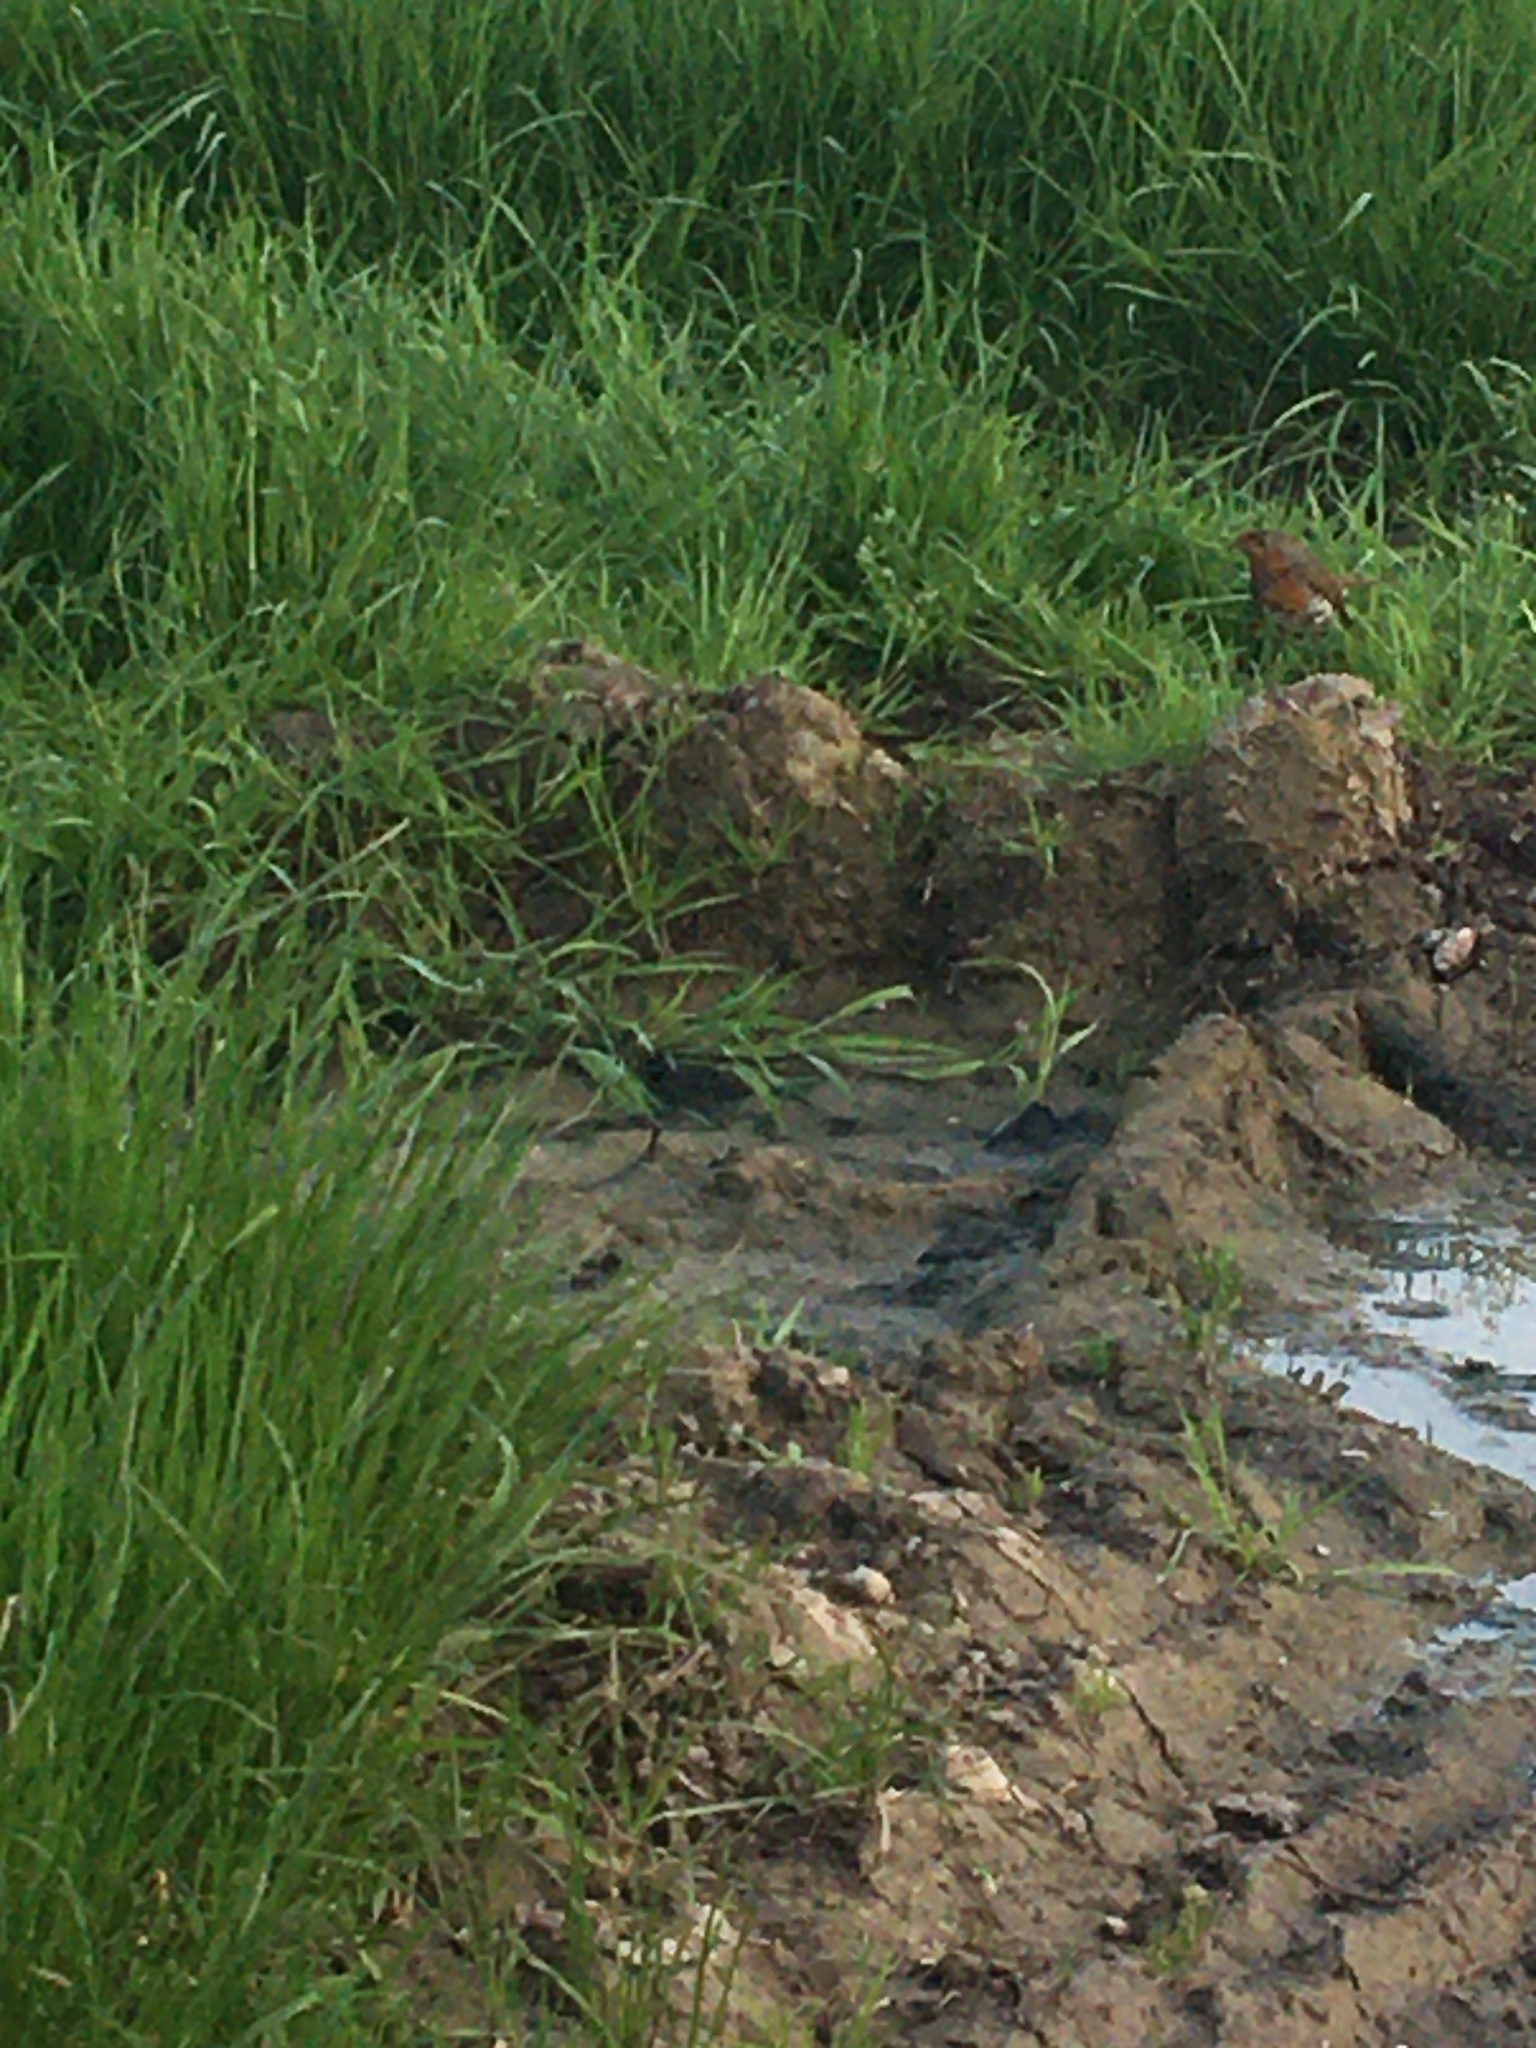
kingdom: Animalia
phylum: Chordata
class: Aves
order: Passeriformes
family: Muscicapidae
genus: Erithacus
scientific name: Erithacus rubecula
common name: European robin
